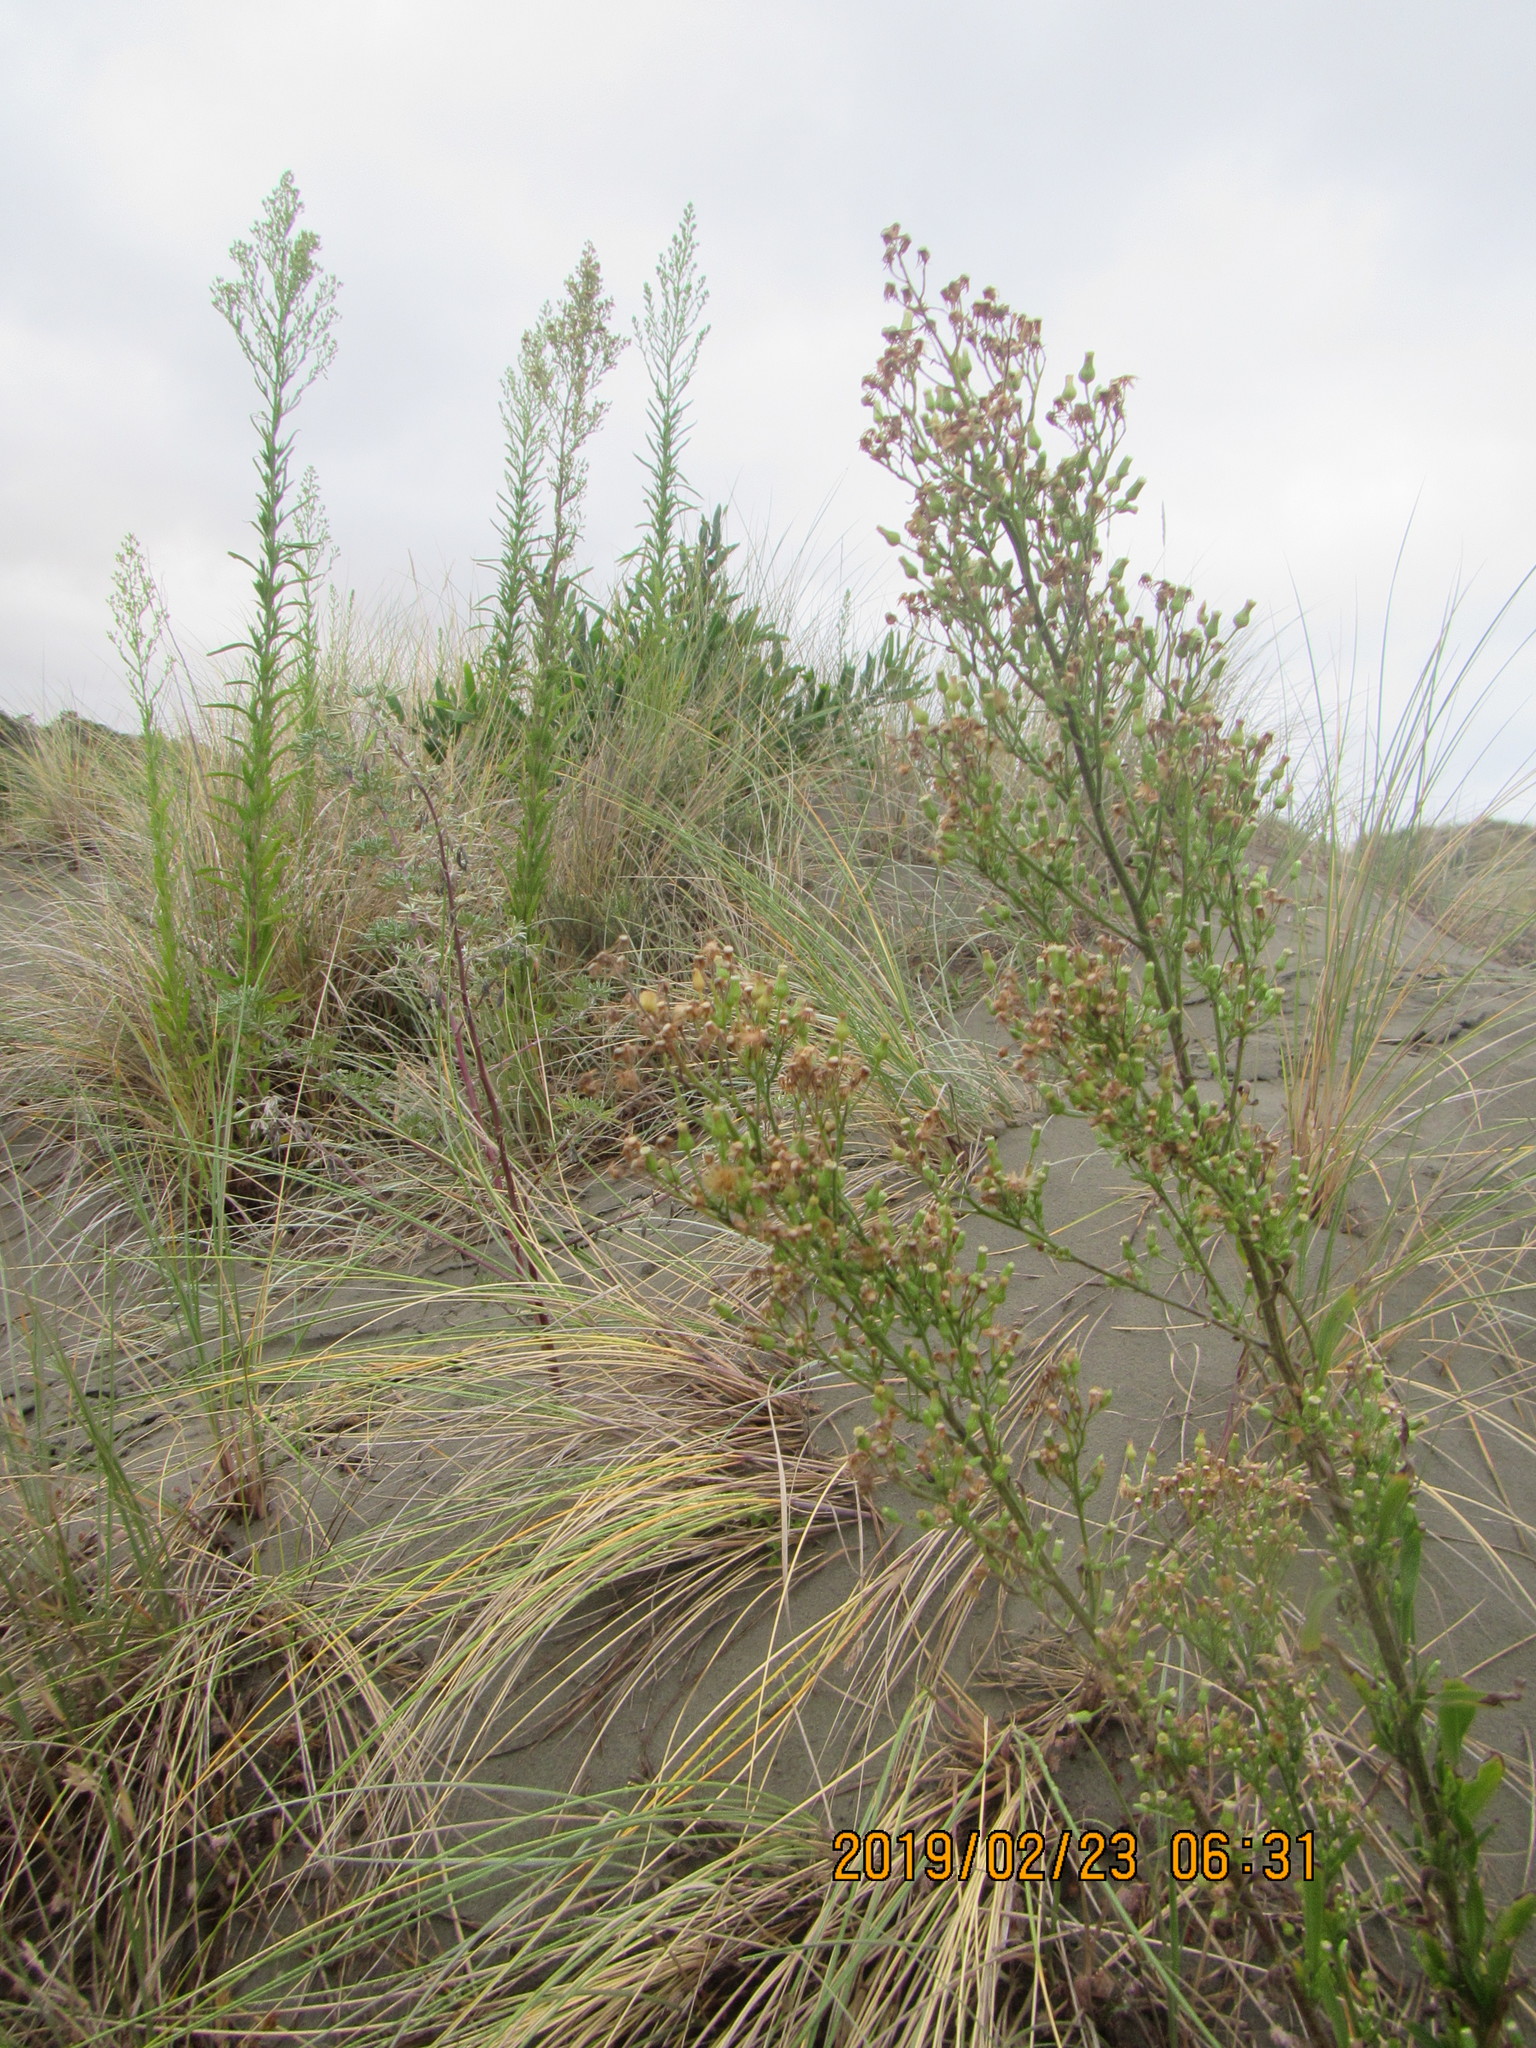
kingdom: Plantae
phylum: Tracheophyta
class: Magnoliopsida
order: Asterales
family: Asteraceae
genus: Erigeron
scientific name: Erigeron sumatrensis
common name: Daisy
